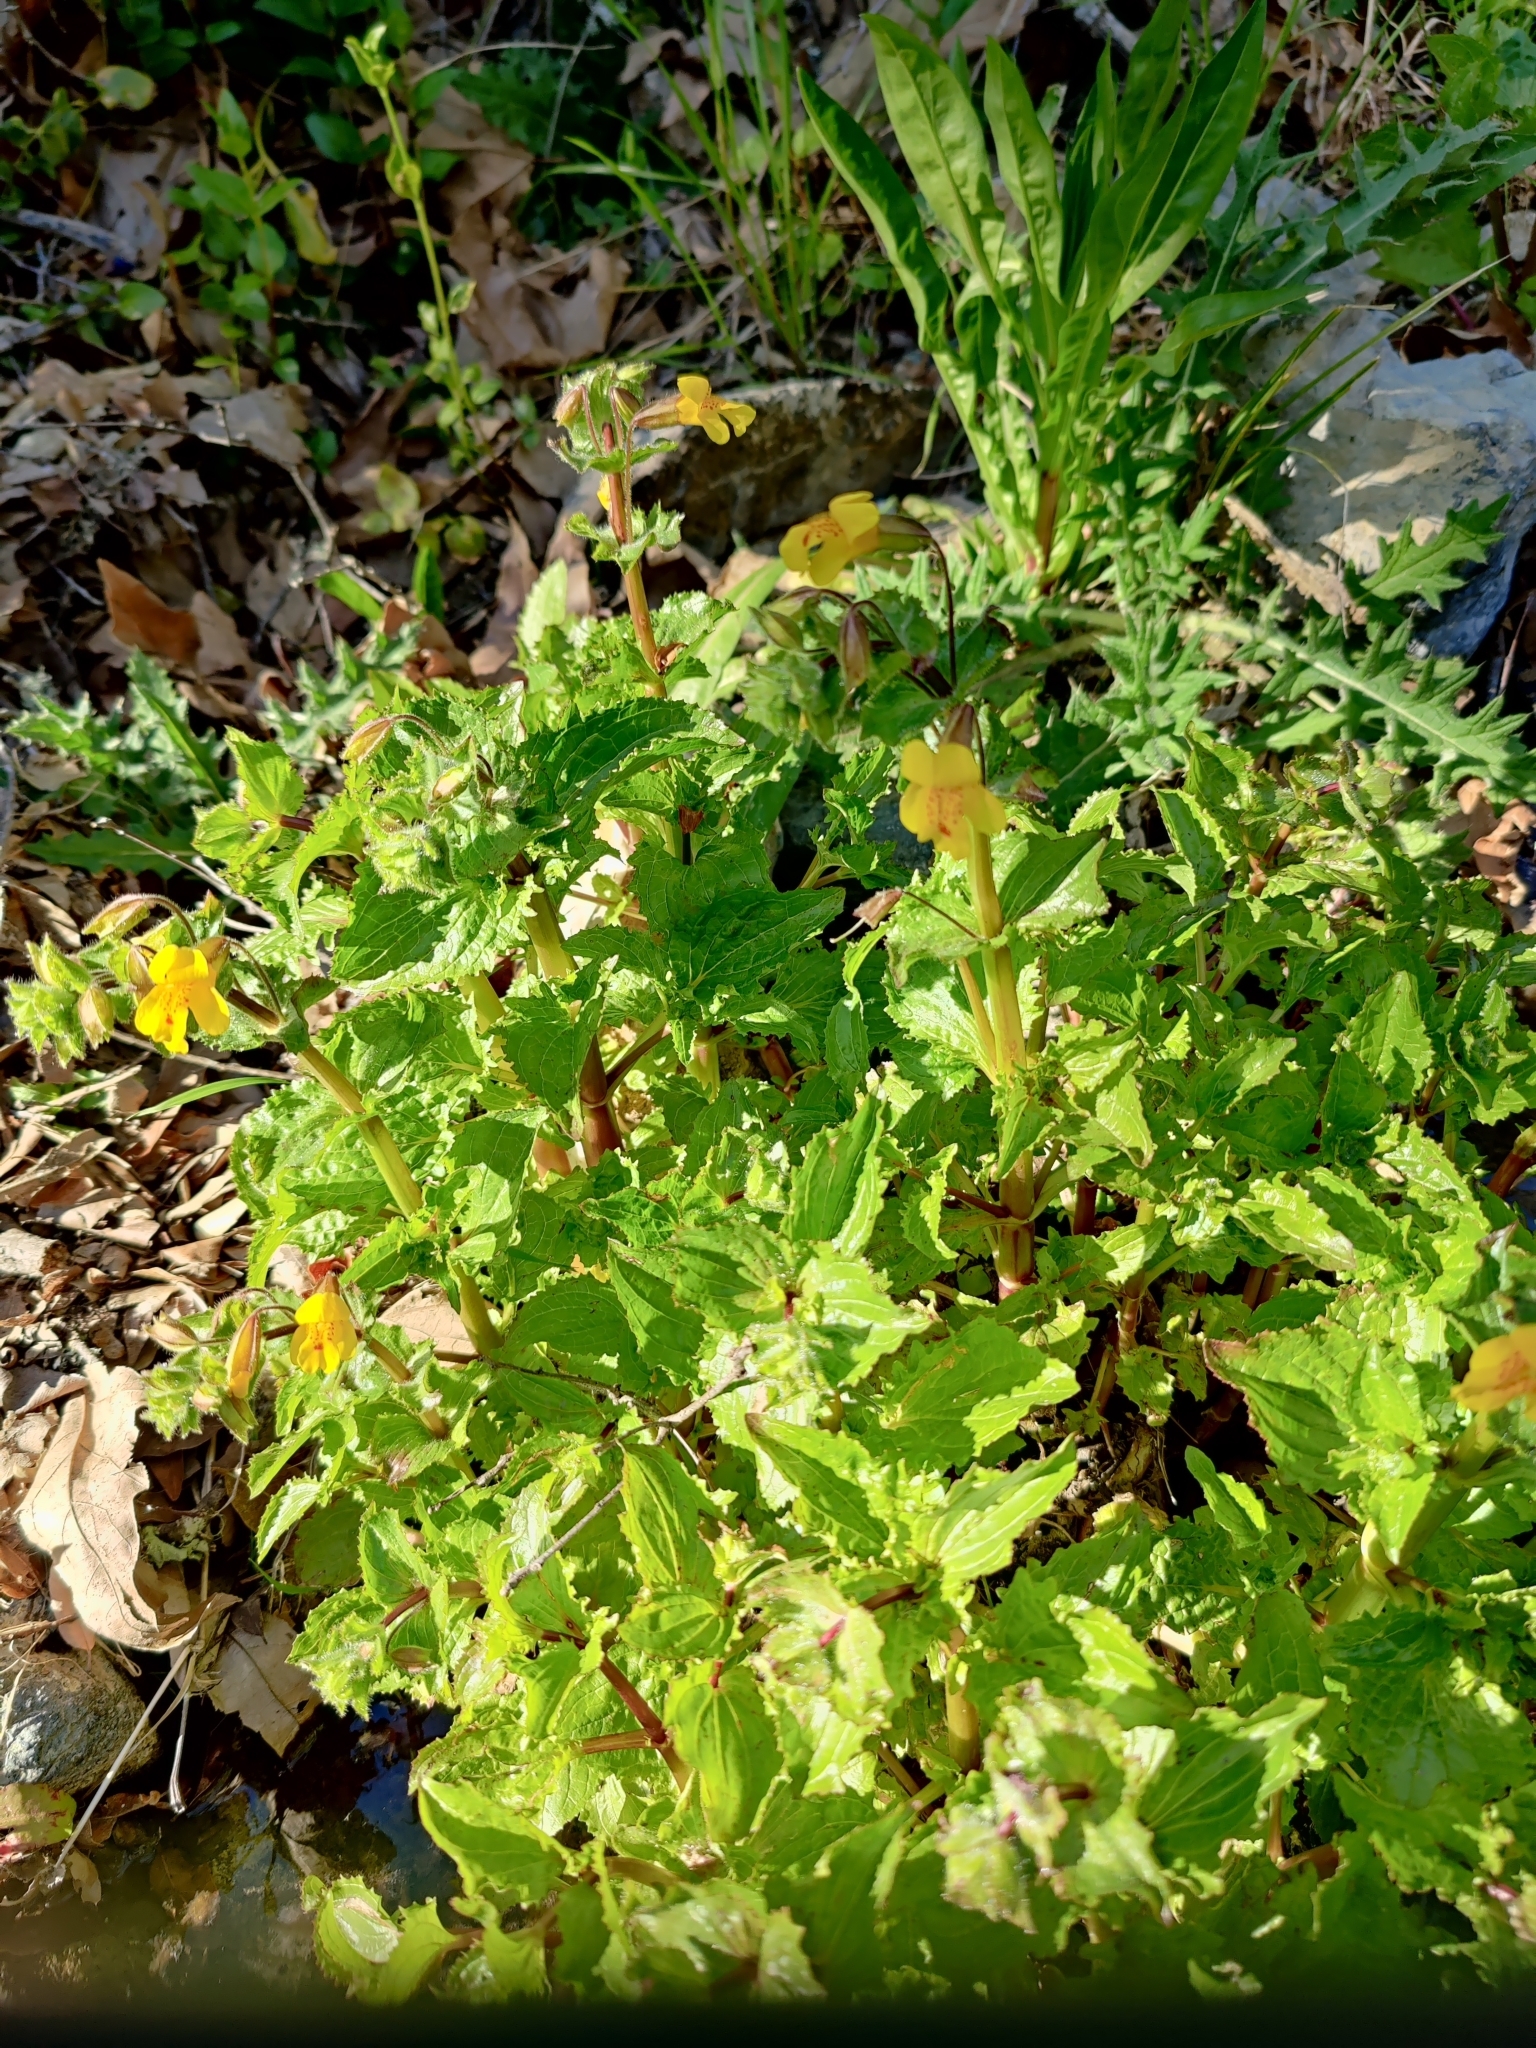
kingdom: Plantae
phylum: Tracheophyta
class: Magnoliopsida
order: Lamiales
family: Phrymaceae
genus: Erythranthe
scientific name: Erythranthe guttata
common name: Monkeyflower
